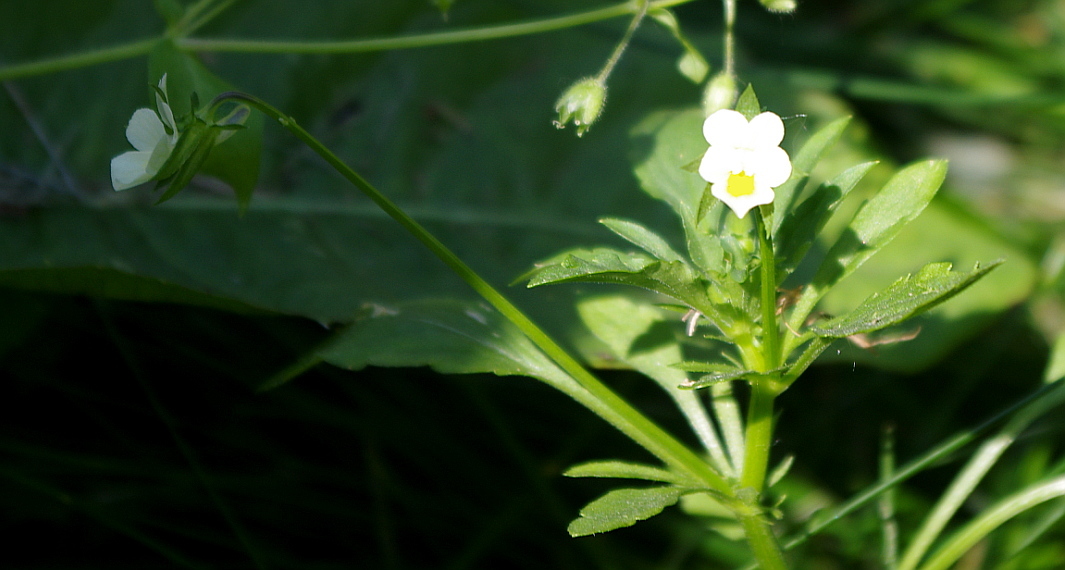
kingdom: Plantae
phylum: Tracheophyta
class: Magnoliopsida
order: Malpighiales
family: Violaceae
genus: Viola
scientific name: Viola arvensis
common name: Field pansy
